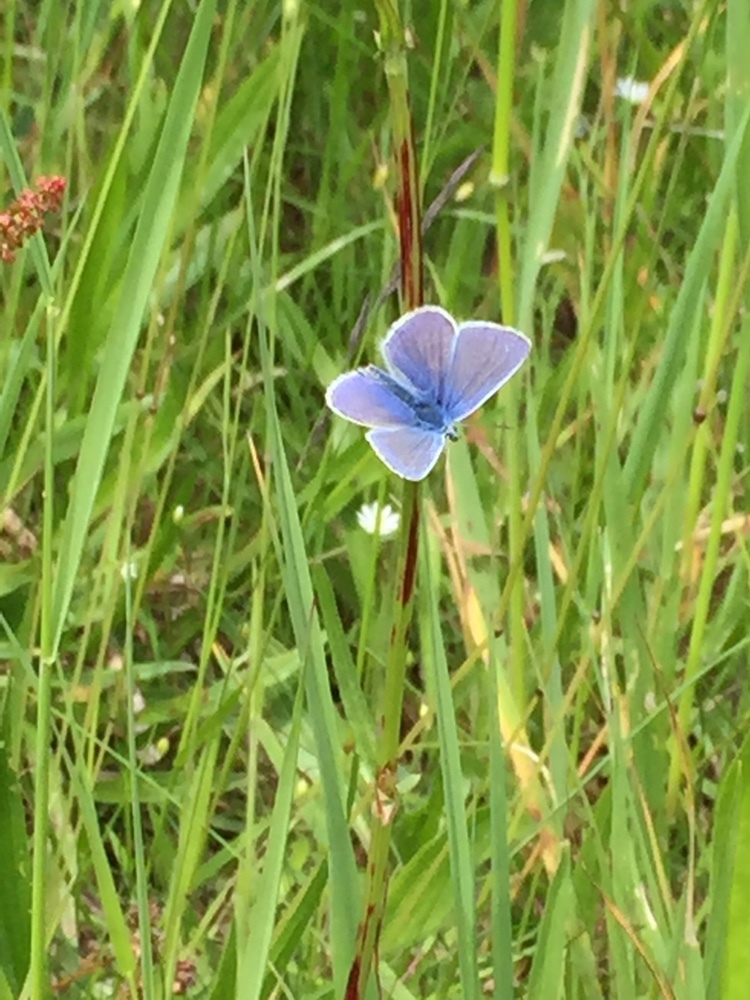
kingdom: Animalia
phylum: Arthropoda
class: Insecta
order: Lepidoptera
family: Lycaenidae
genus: Polyommatus
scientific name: Polyommatus icarus
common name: Common blue
